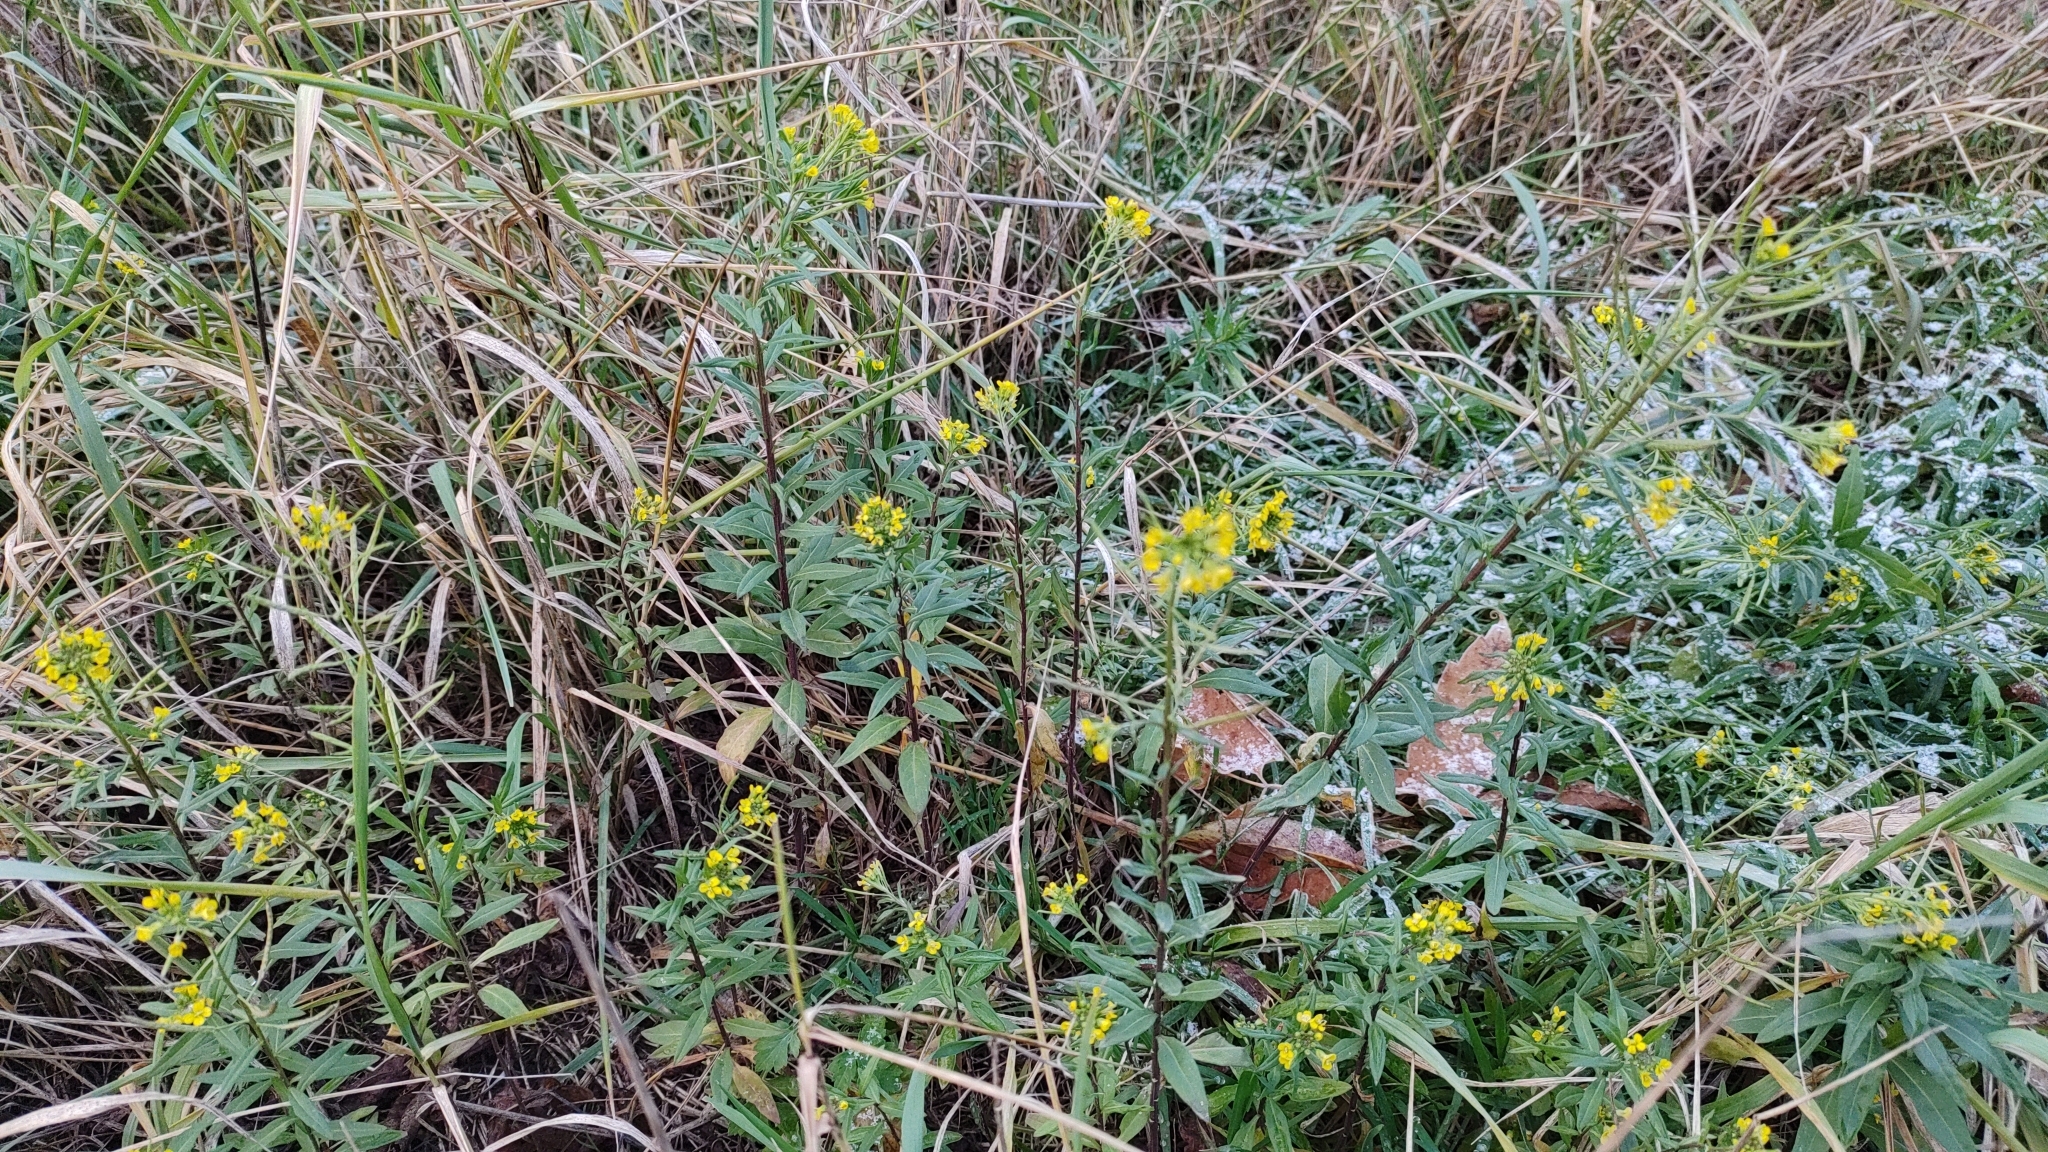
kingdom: Plantae
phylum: Tracheophyta
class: Magnoliopsida
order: Brassicales
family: Brassicaceae
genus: Erysimum
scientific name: Erysimum cheiranthoides
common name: Treacle mustard
